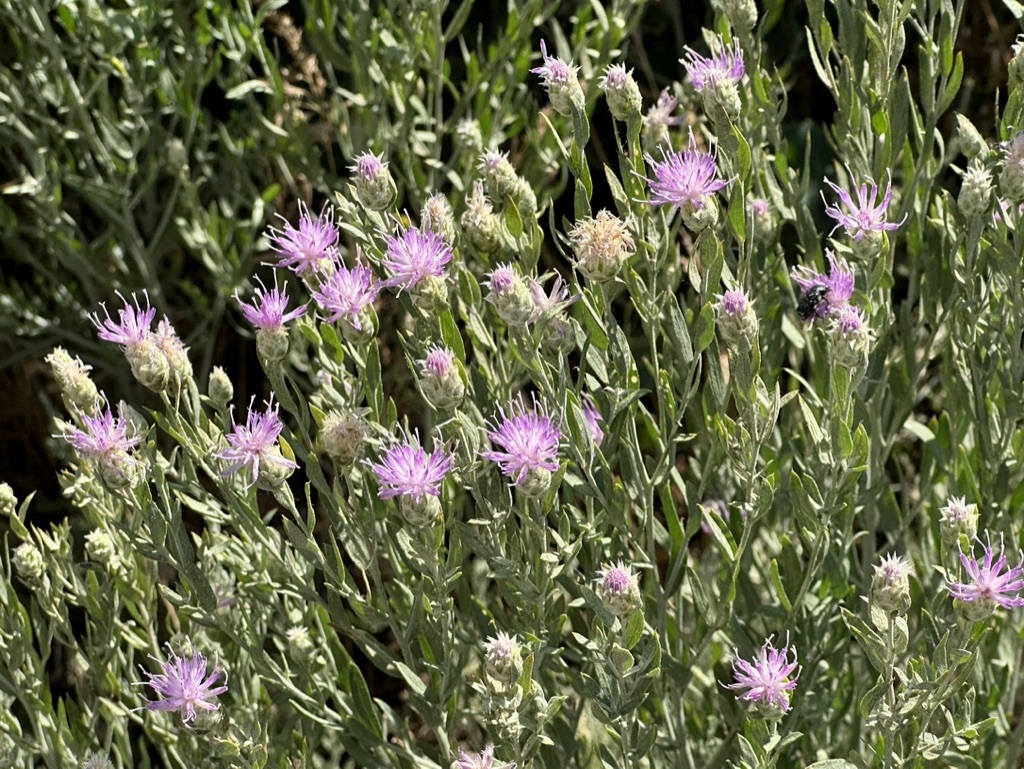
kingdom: Plantae
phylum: Tracheophyta
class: Magnoliopsida
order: Asterales
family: Asteraceae
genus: Leuzea
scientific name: Leuzea repens
